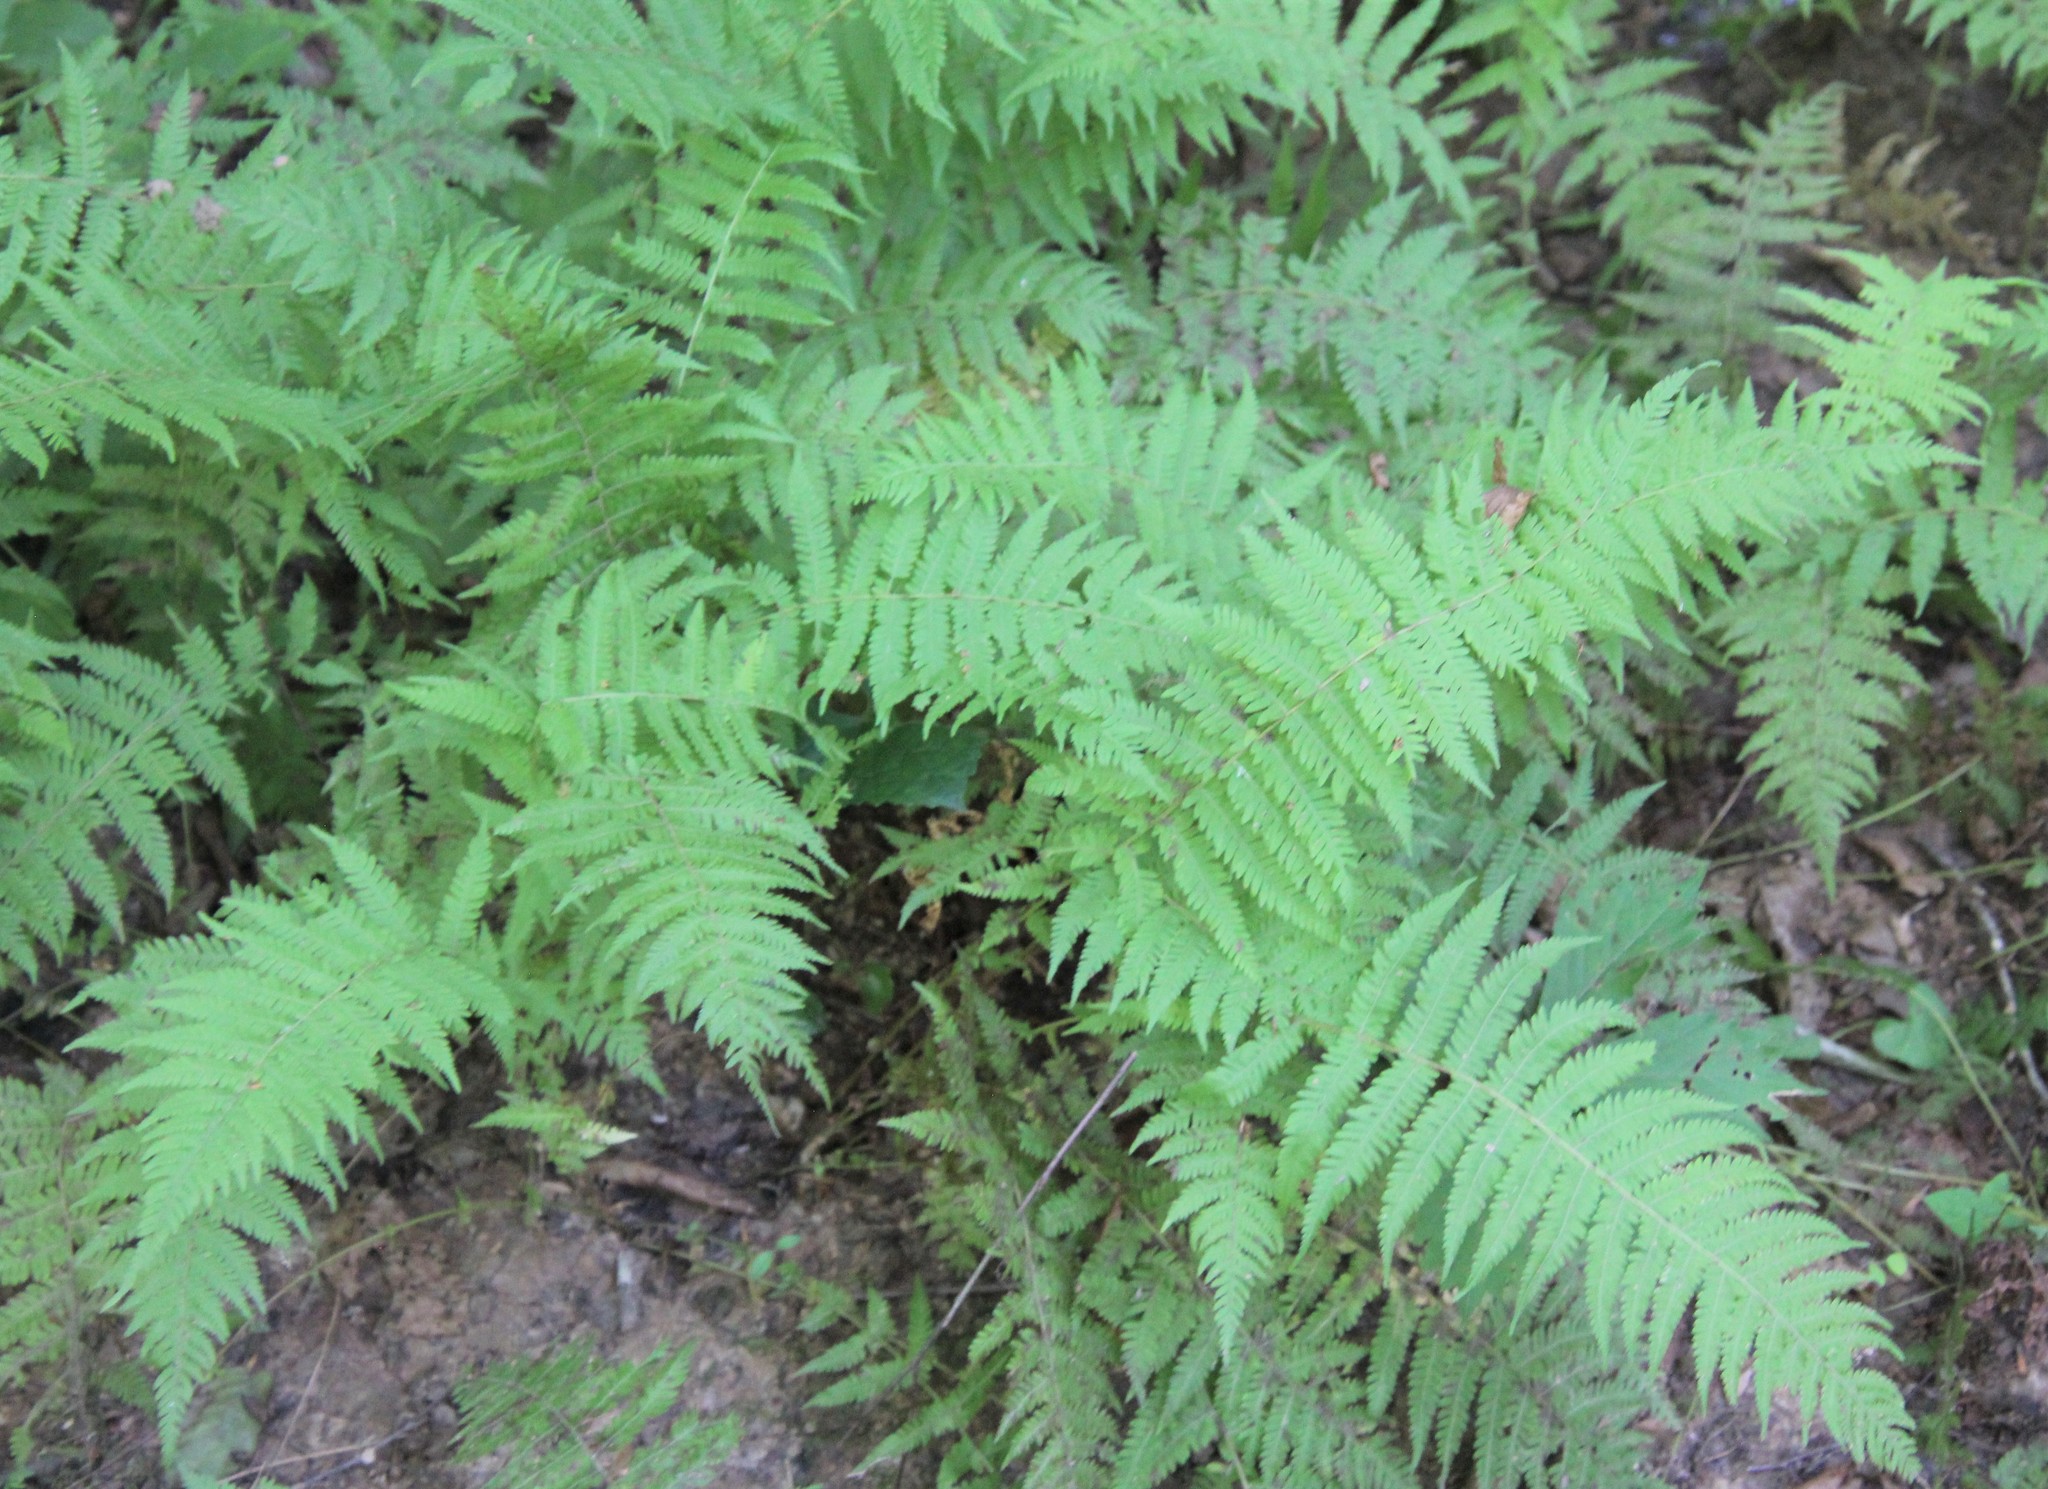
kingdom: Plantae
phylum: Tracheophyta
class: Polypodiopsida
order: Polypodiales
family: Thelypteridaceae
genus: Amauropelta
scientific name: Amauropelta noveboracensis
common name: New york fern
